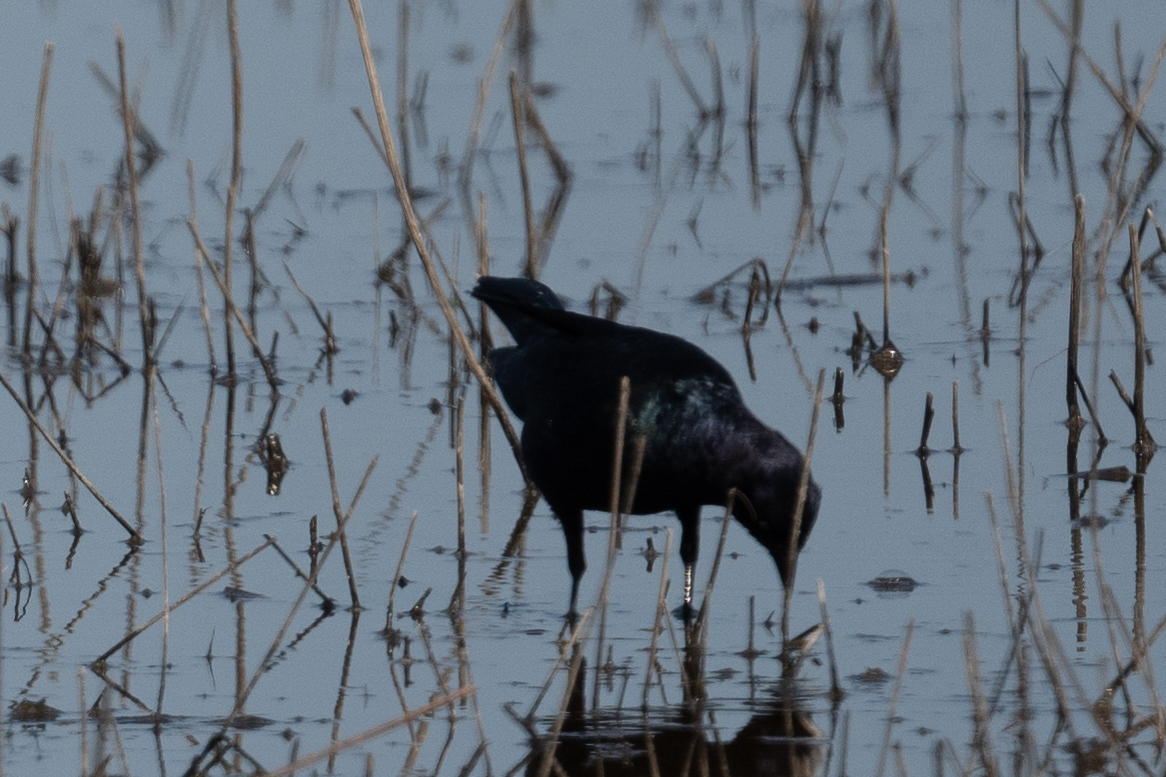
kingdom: Animalia
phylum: Chordata
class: Aves
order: Passeriformes
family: Icteridae
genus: Euphagus
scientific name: Euphagus cyanocephalus
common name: Brewer's blackbird
